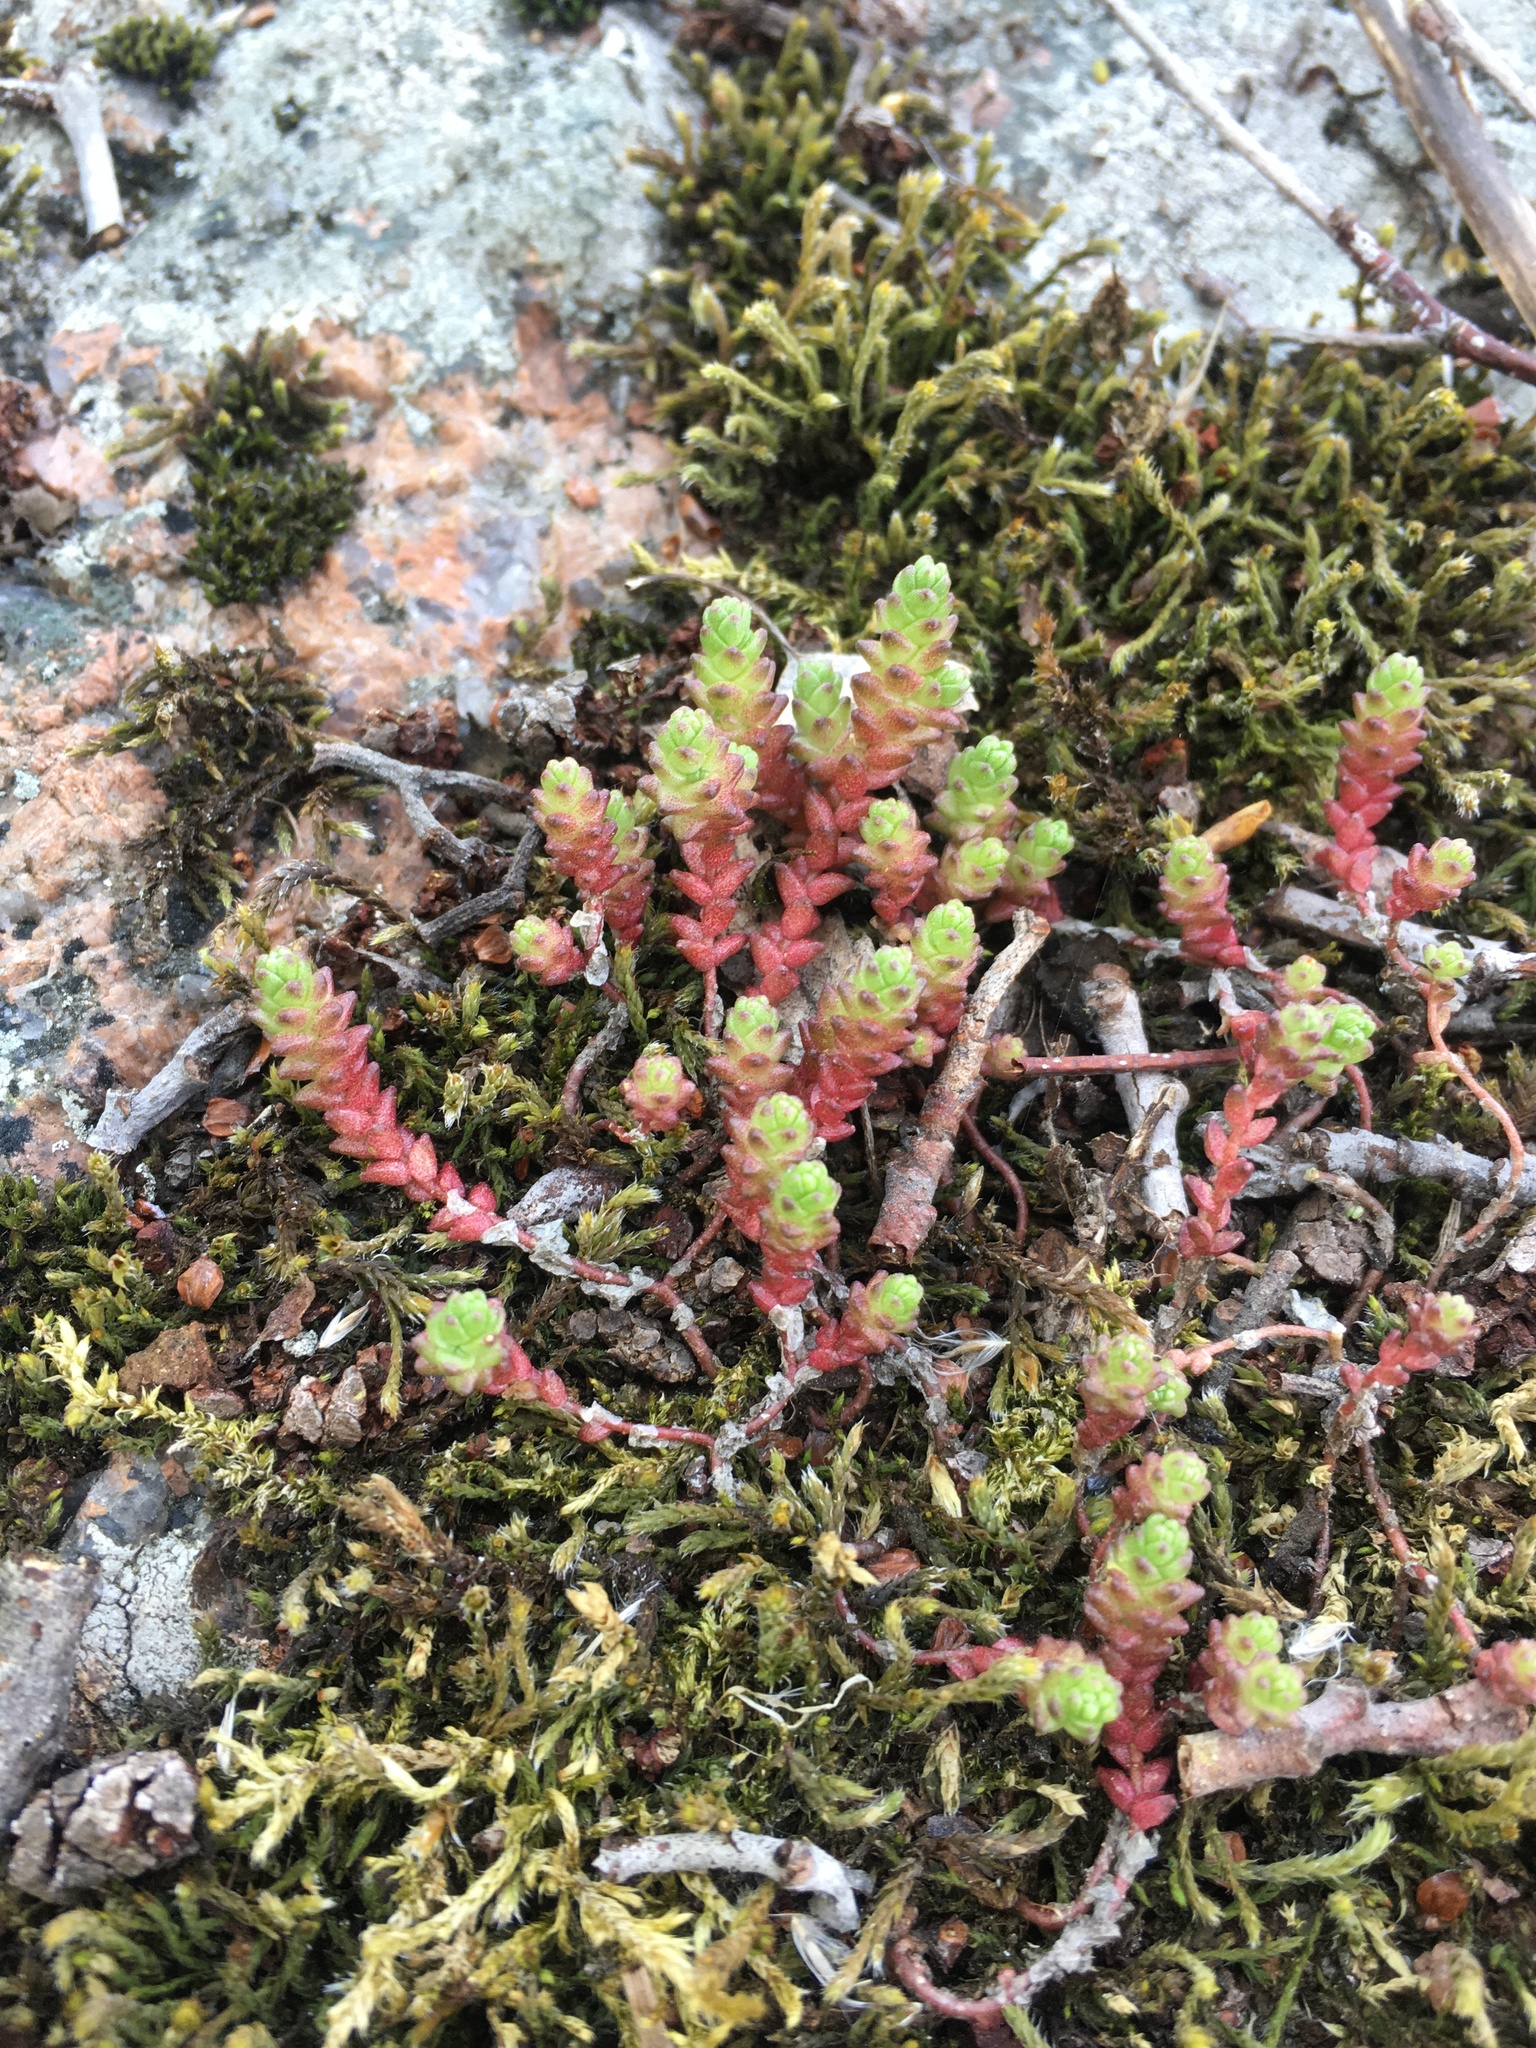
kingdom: Plantae
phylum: Tracheophyta
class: Magnoliopsida
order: Saxifragales
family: Crassulaceae
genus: Sedum
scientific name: Sedum acre
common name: Biting stonecrop
